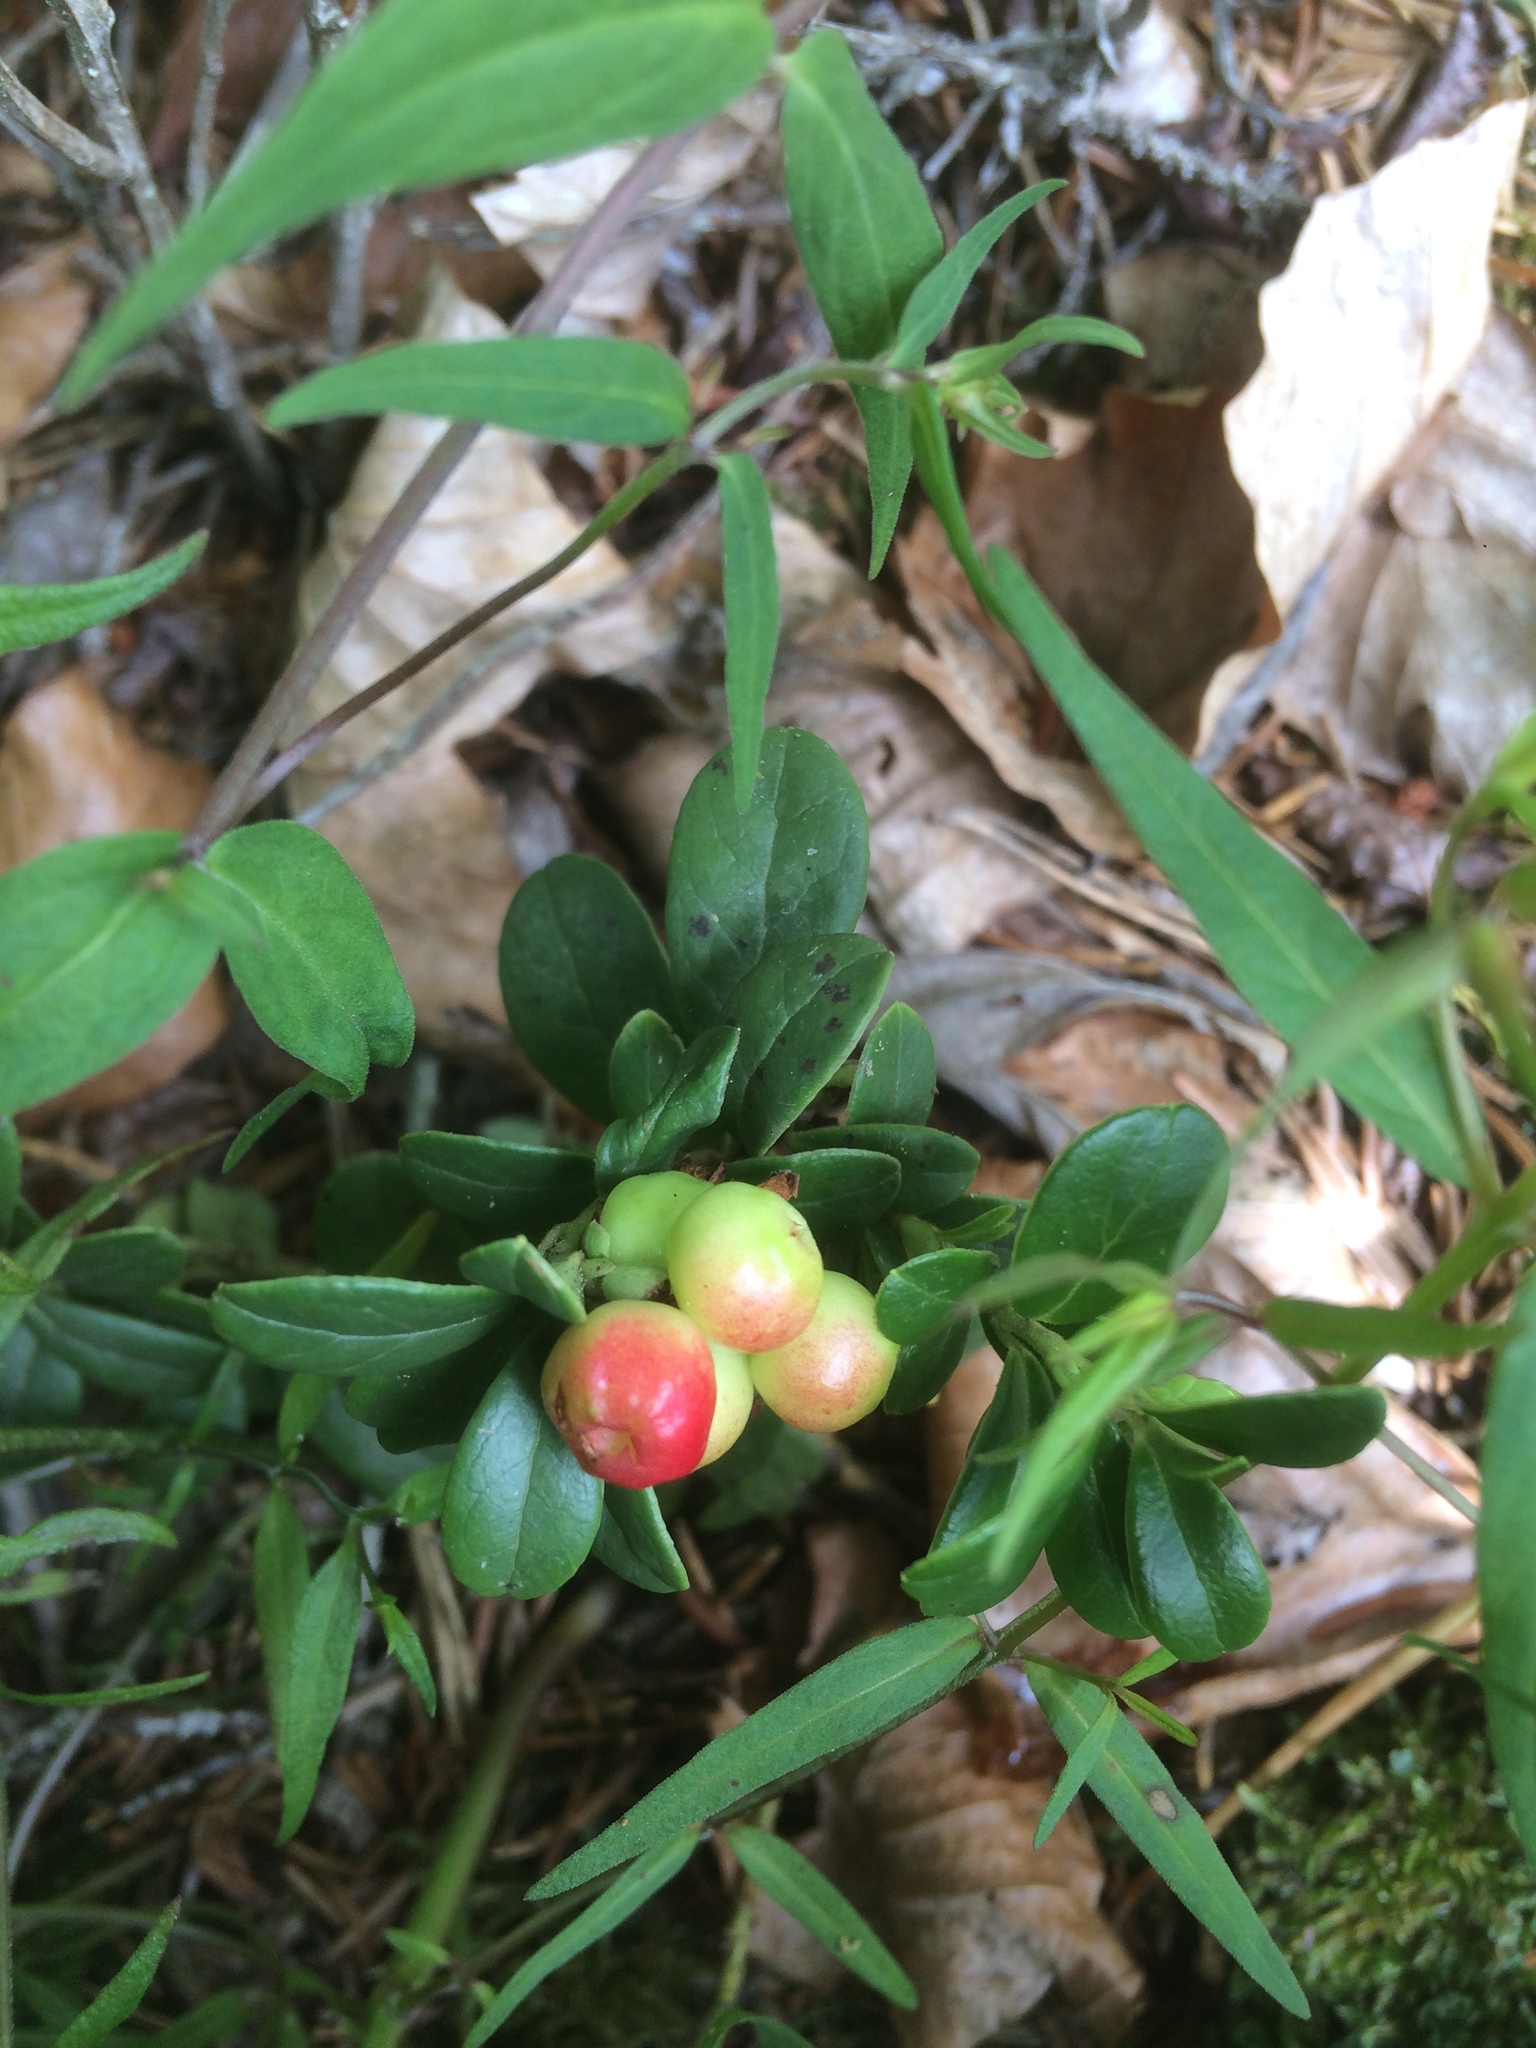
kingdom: Plantae
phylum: Tracheophyta
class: Magnoliopsida
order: Ericales
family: Ericaceae
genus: Vaccinium
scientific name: Vaccinium vitis-idaea
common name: Cowberry
